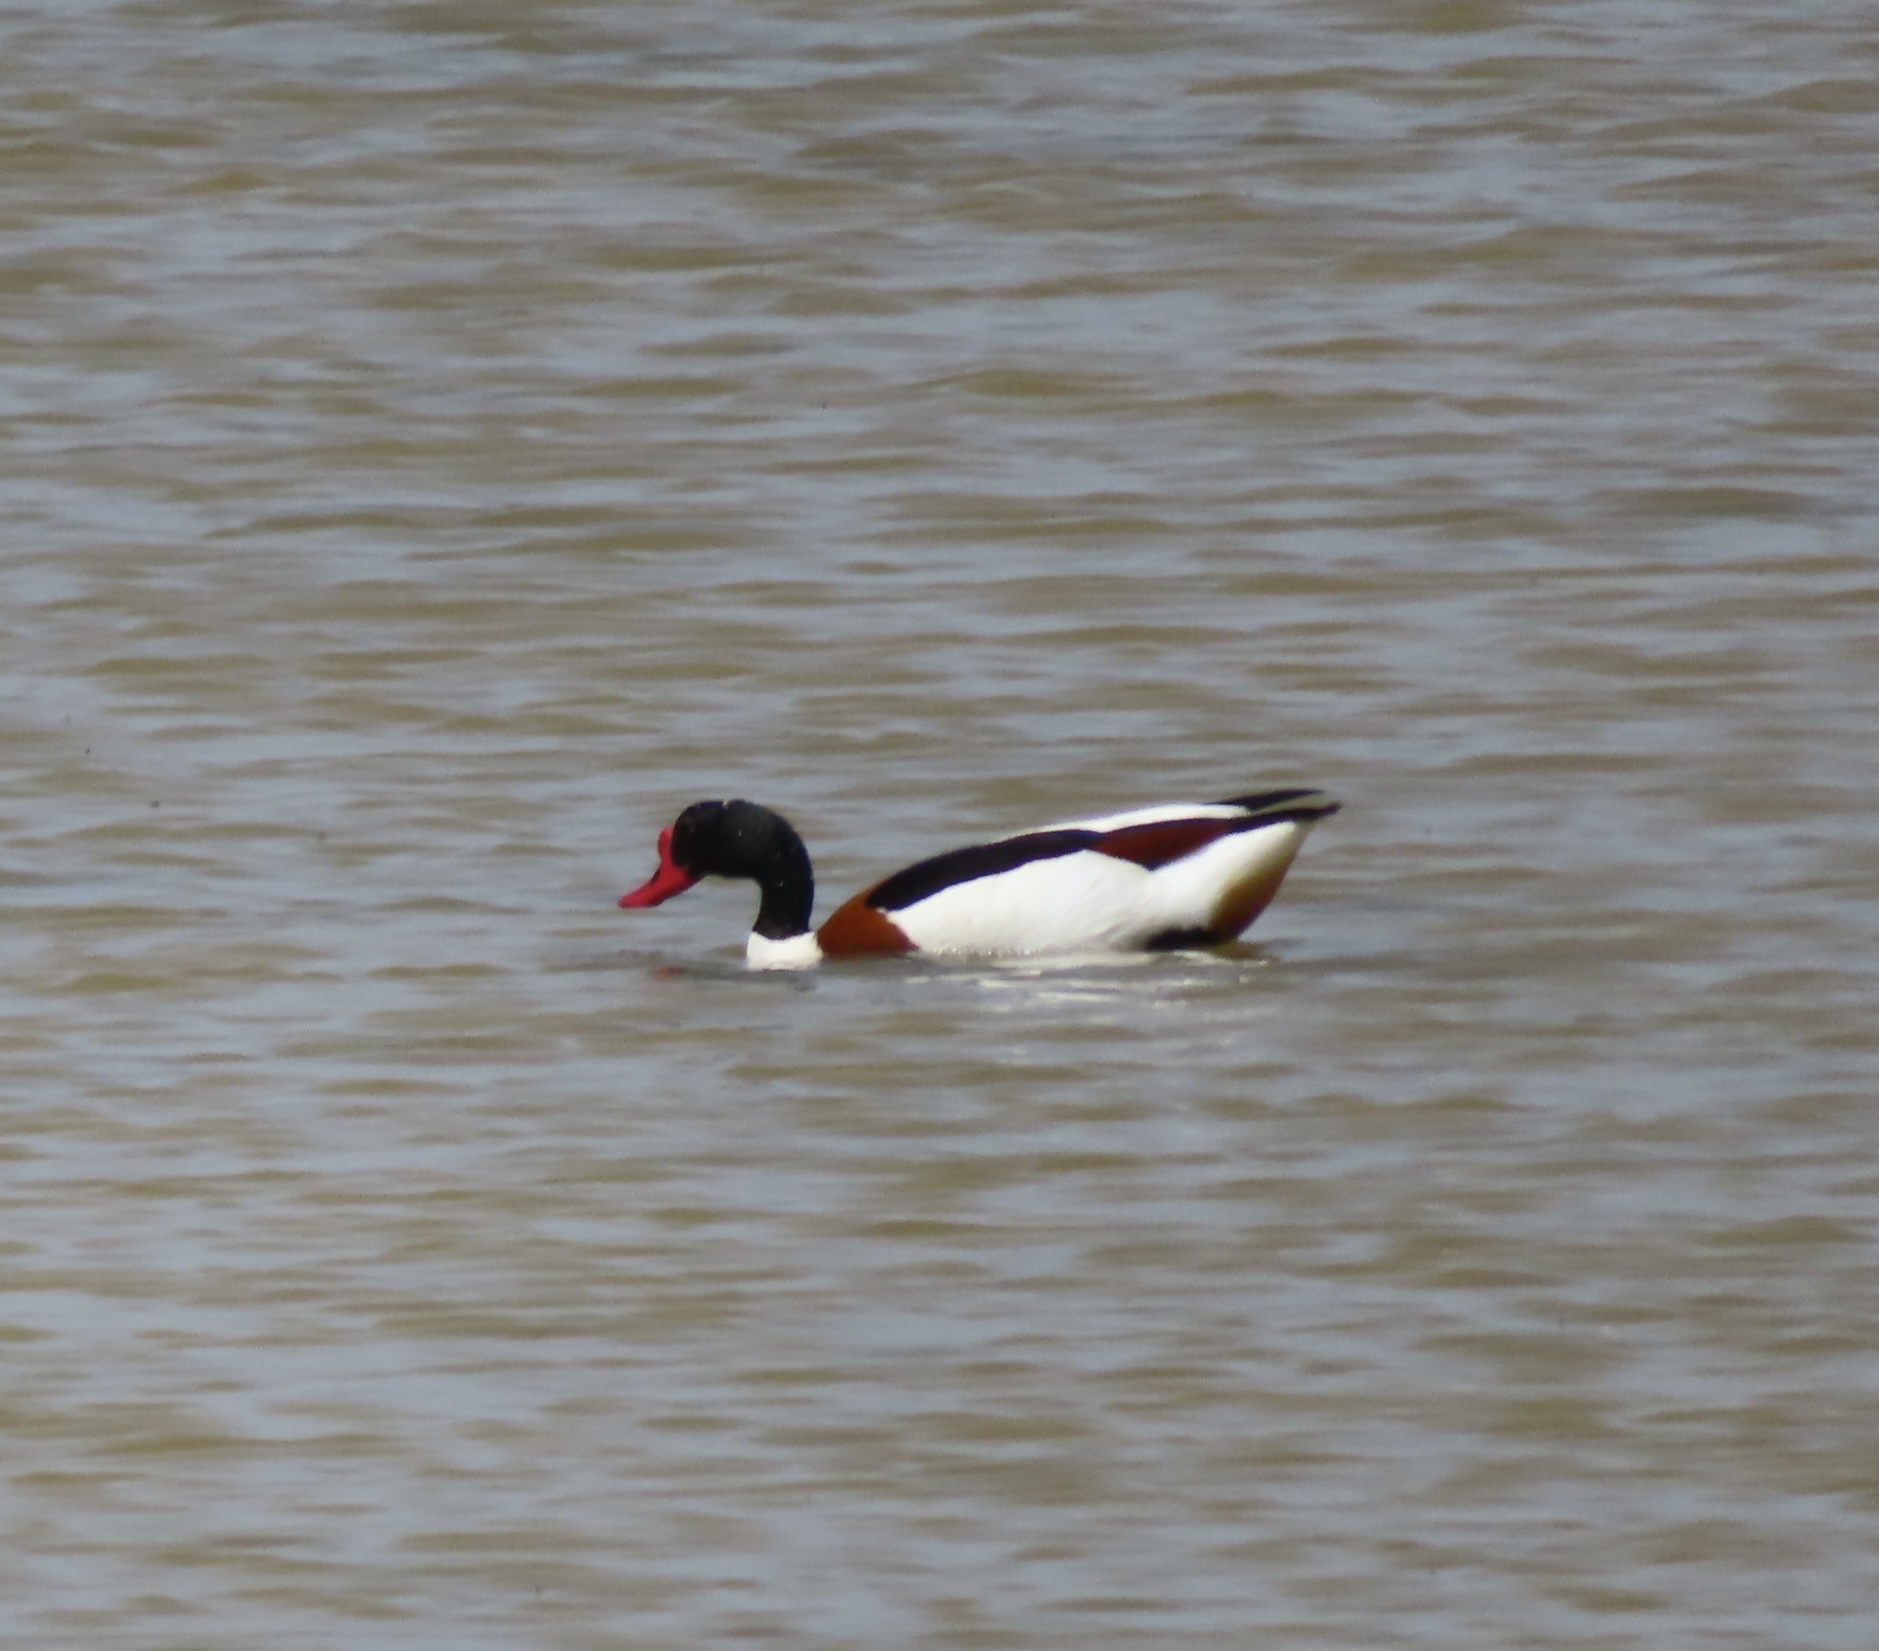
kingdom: Animalia
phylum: Chordata
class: Aves
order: Anseriformes
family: Anatidae
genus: Tadorna
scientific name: Tadorna tadorna
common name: Common shelduck
